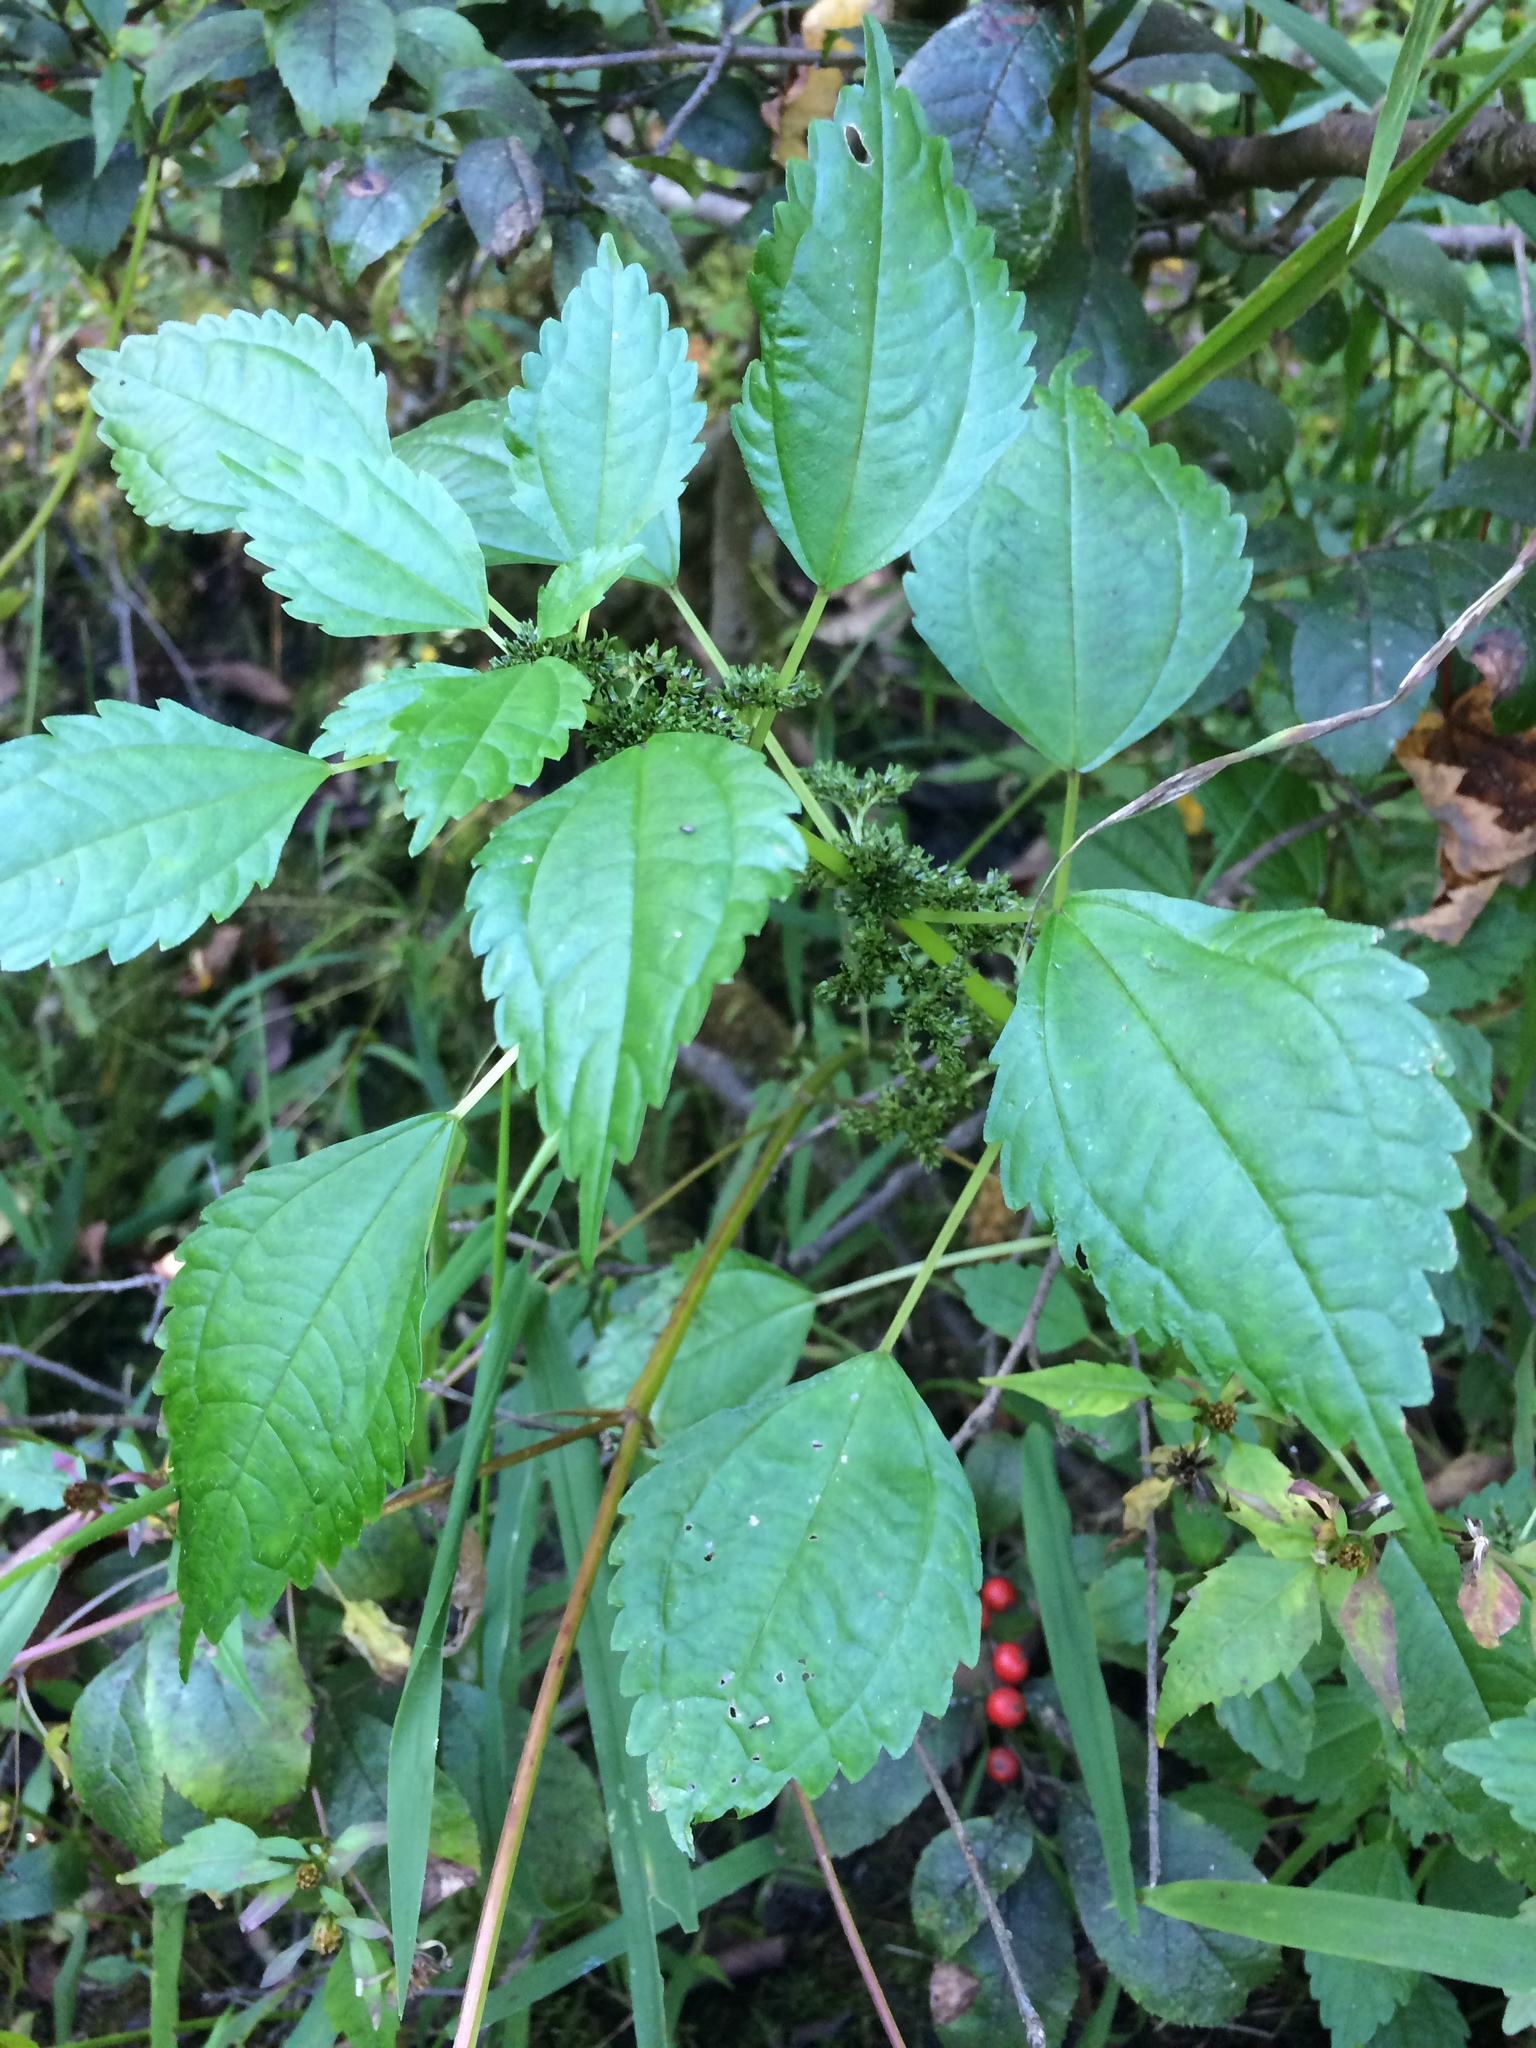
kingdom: Plantae
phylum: Tracheophyta
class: Magnoliopsida
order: Rosales
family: Urticaceae
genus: Pilea
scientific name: Pilea fontana
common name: Clearweed
